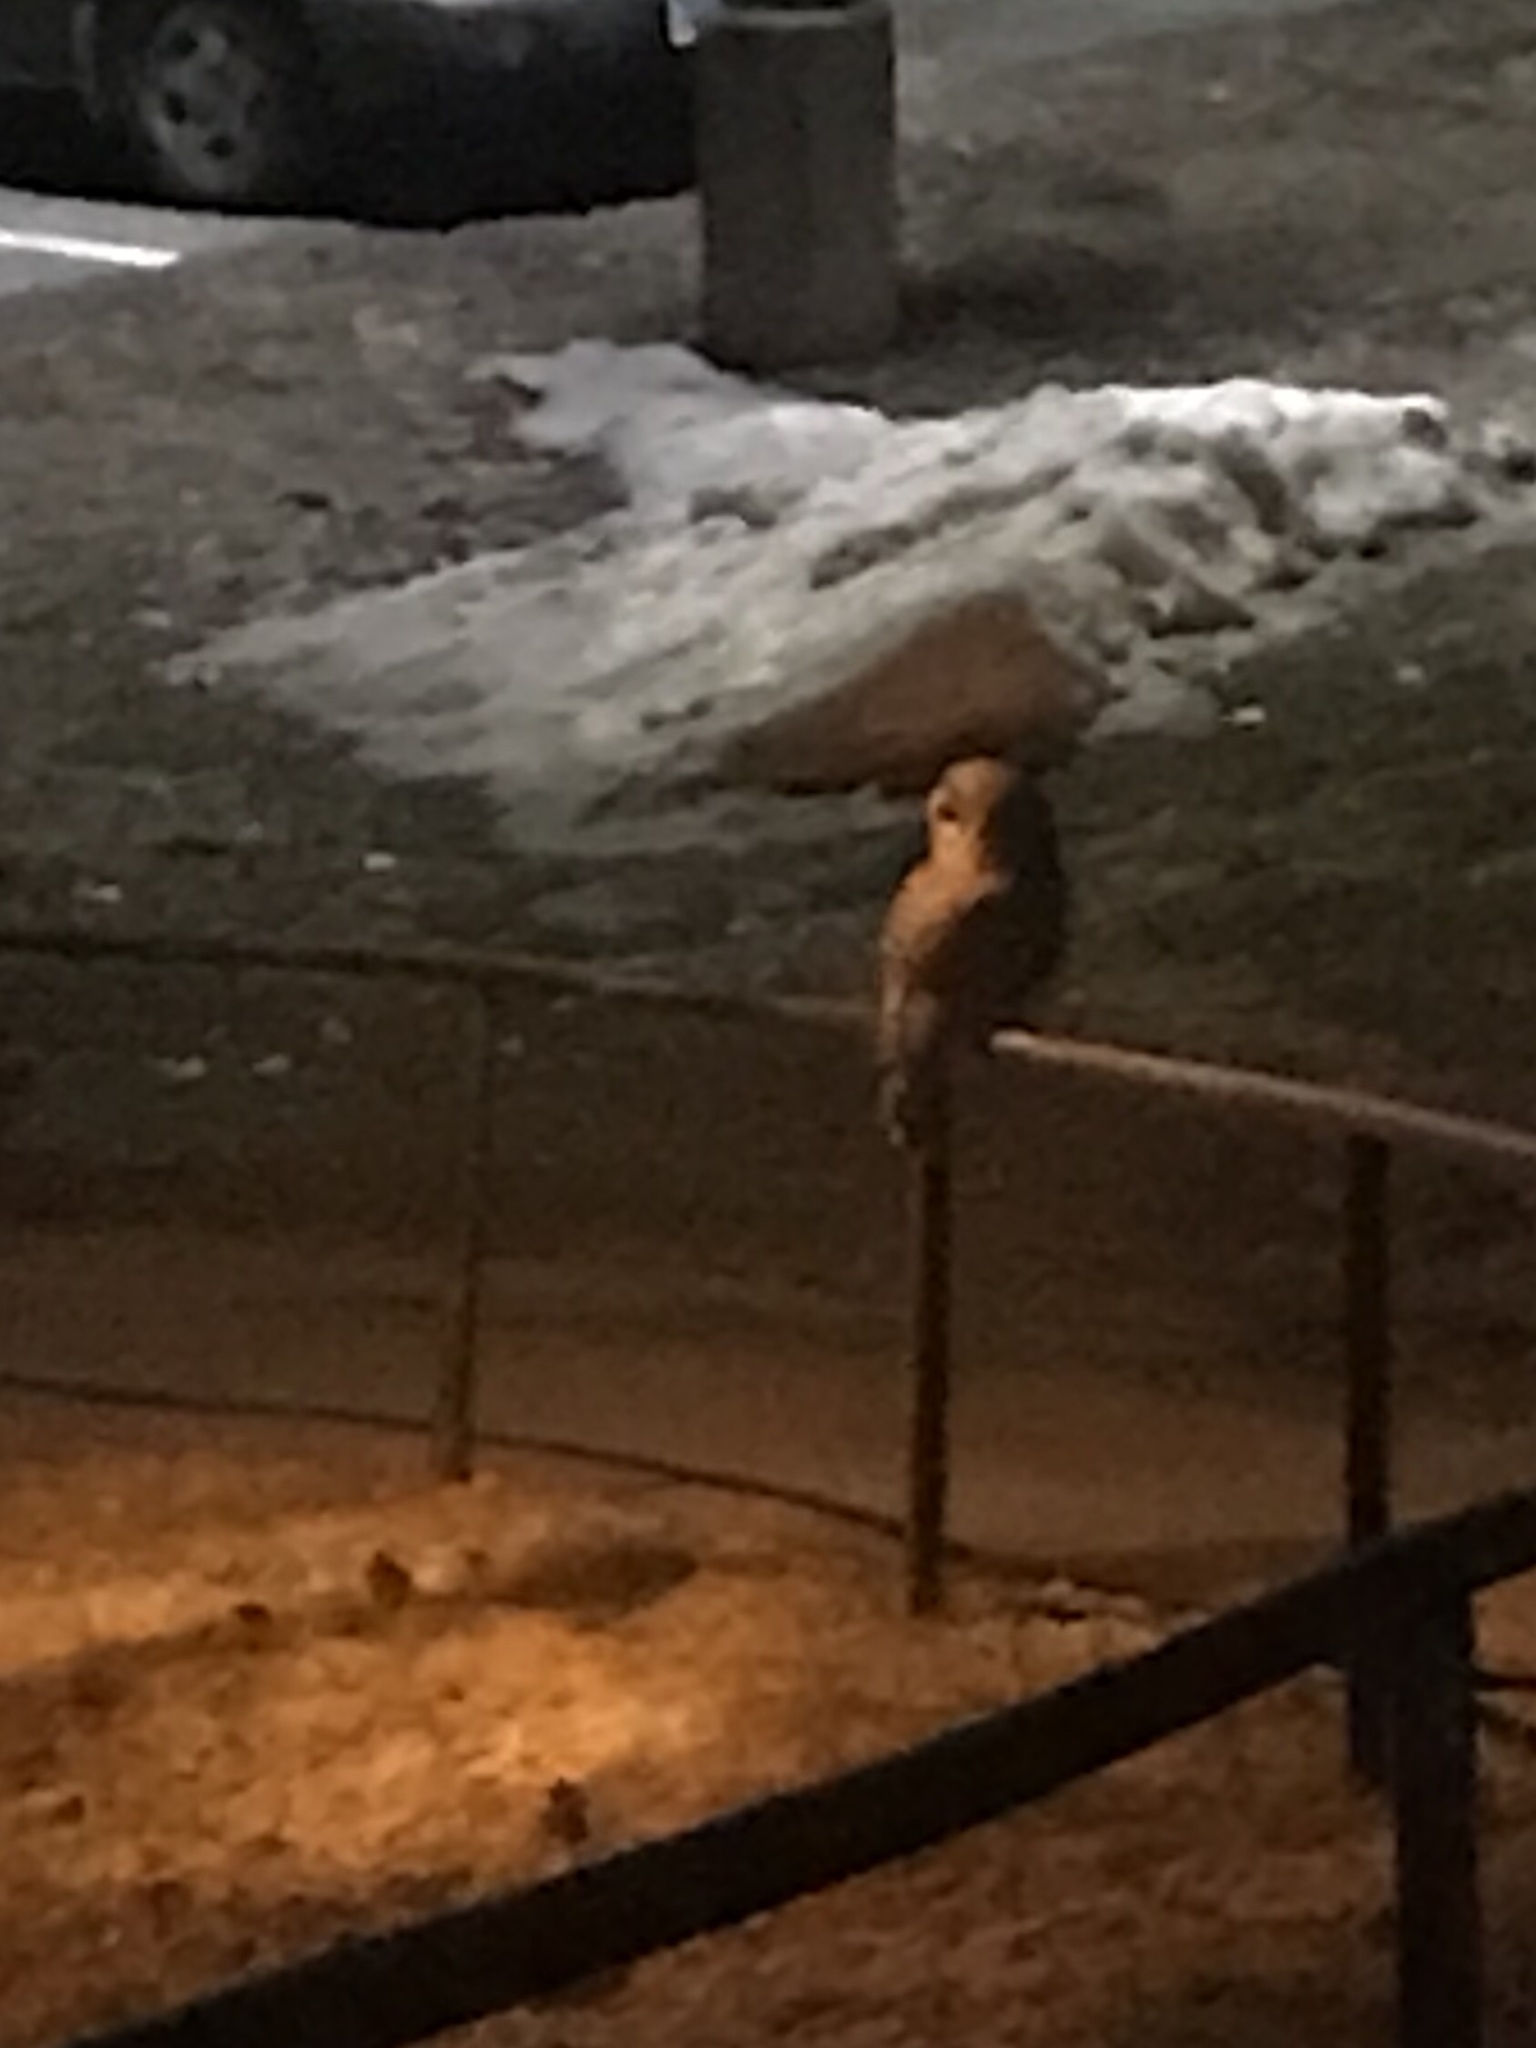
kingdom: Animalia
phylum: Chordata
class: Aves
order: Strigiformes
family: Strigidae
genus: Strix
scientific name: Strix varia
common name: Barred owl
